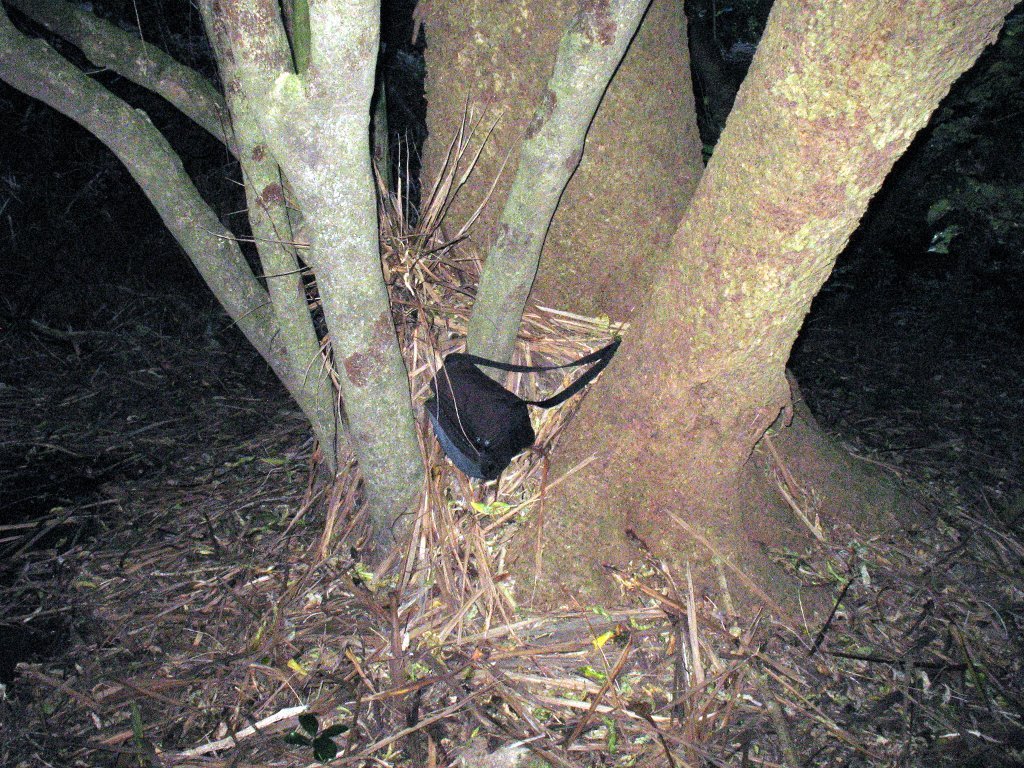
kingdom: Plantae
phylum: Tracheophyta
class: Liliopsida
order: Asparagales
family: Asparagaceae
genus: Cordyline
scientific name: Cordyline australis
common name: Cabbage-palm
